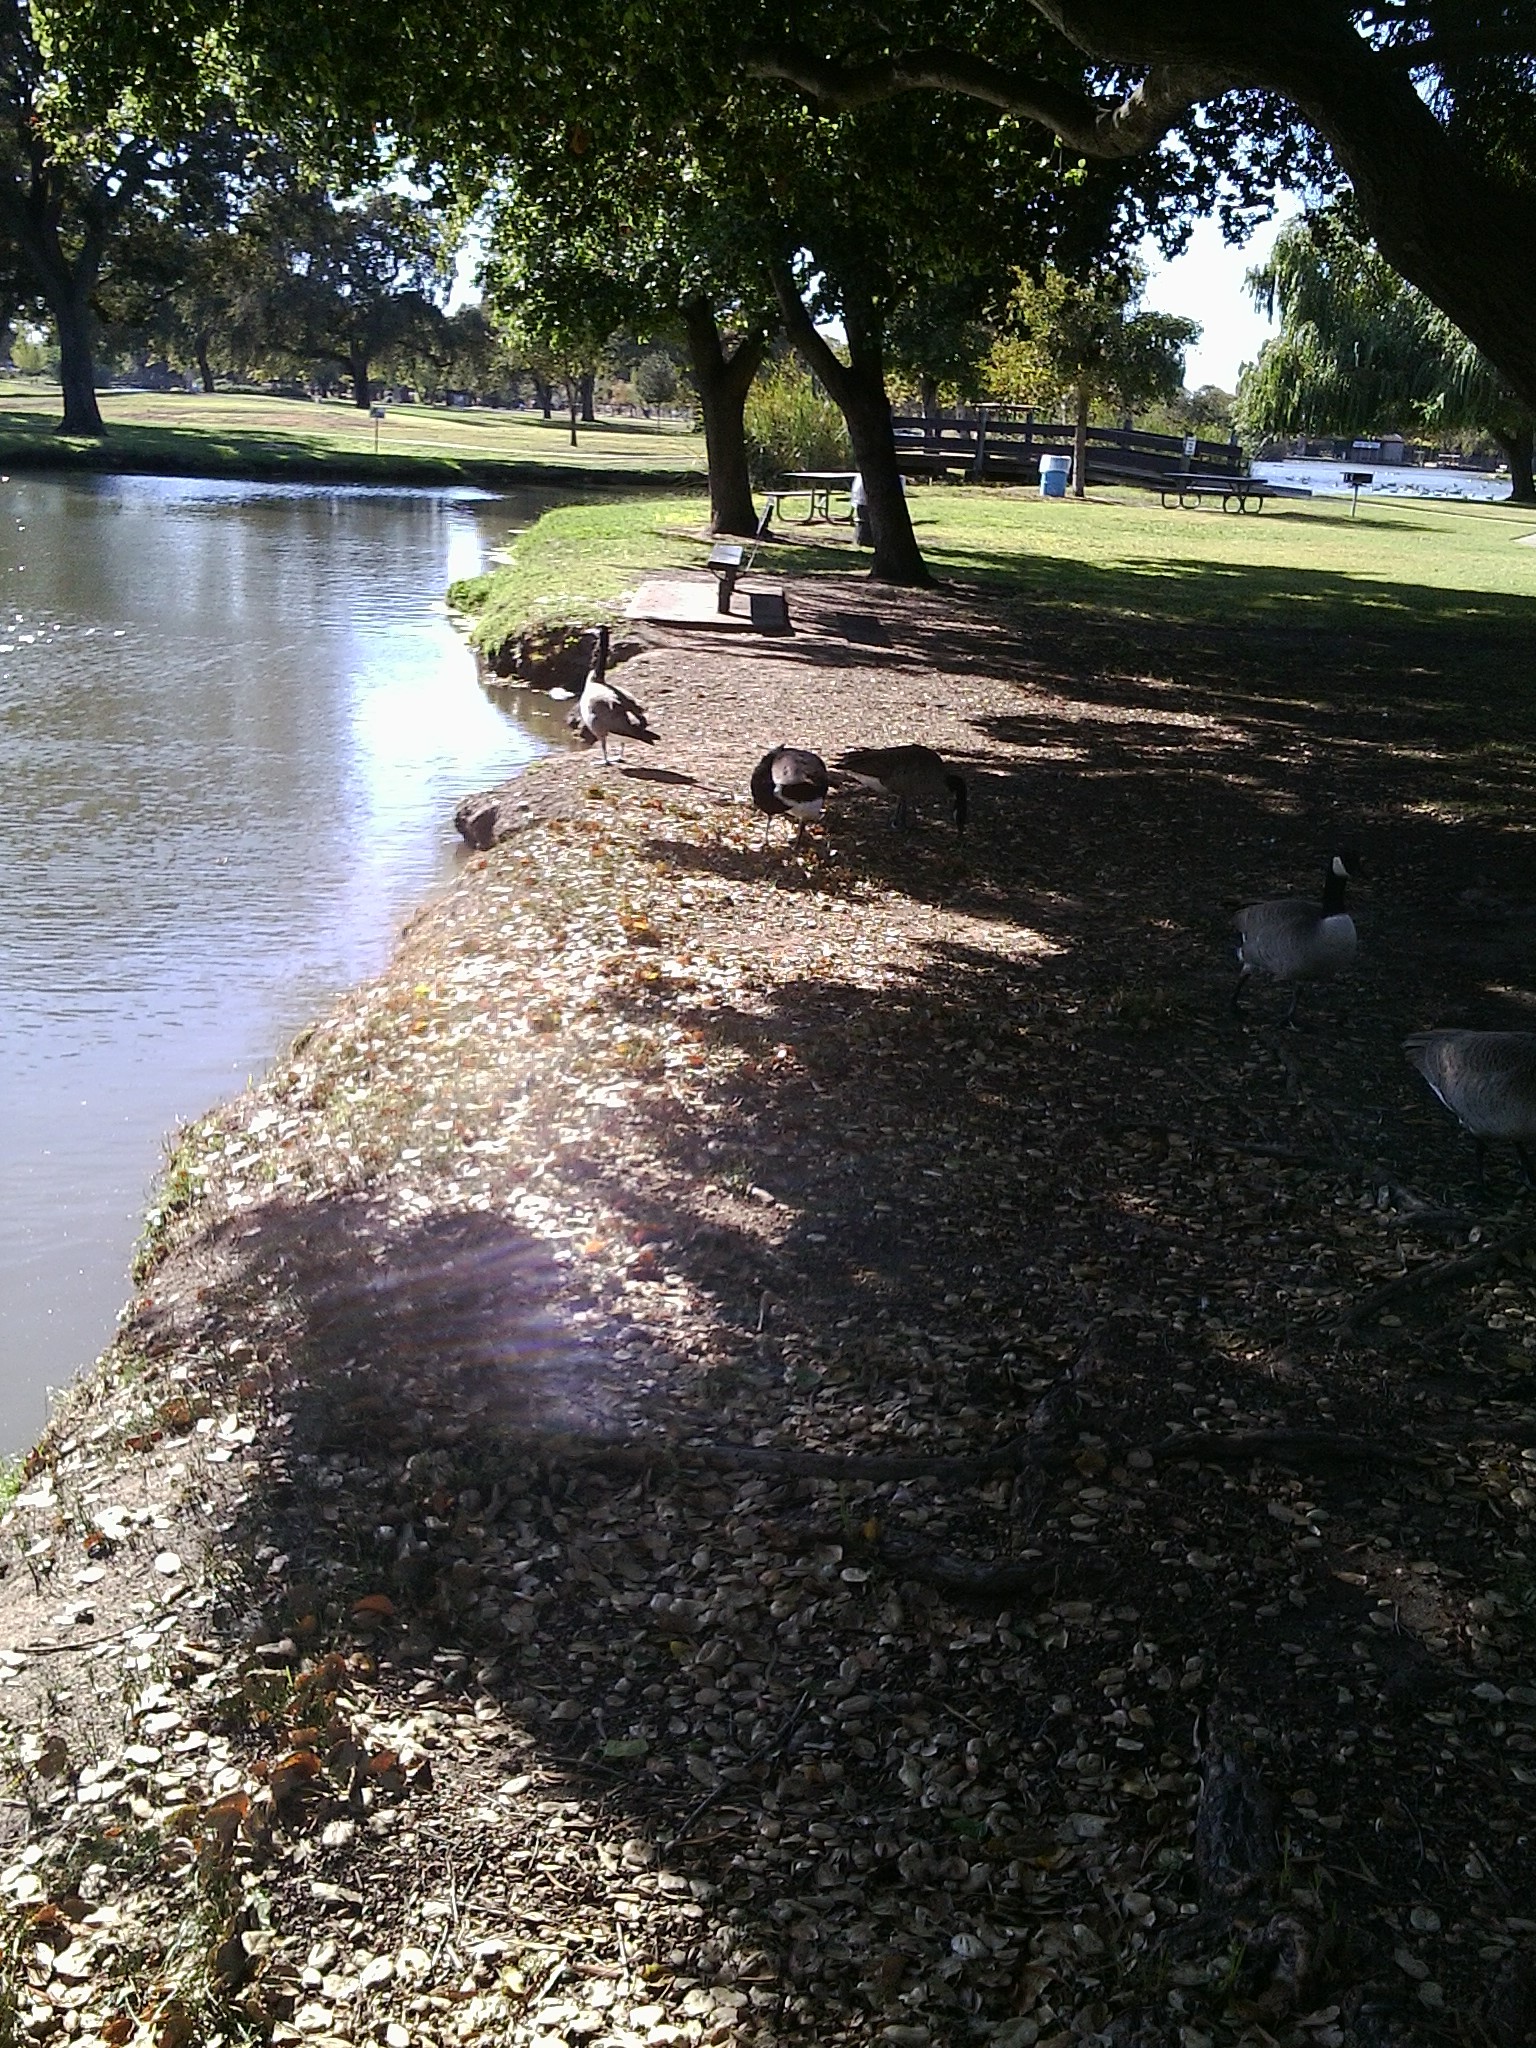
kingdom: Animalia
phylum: Chordata
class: Aves
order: Anseriformes
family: Anatidae
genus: Branta
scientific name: Branta canadensis
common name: Canada goose
